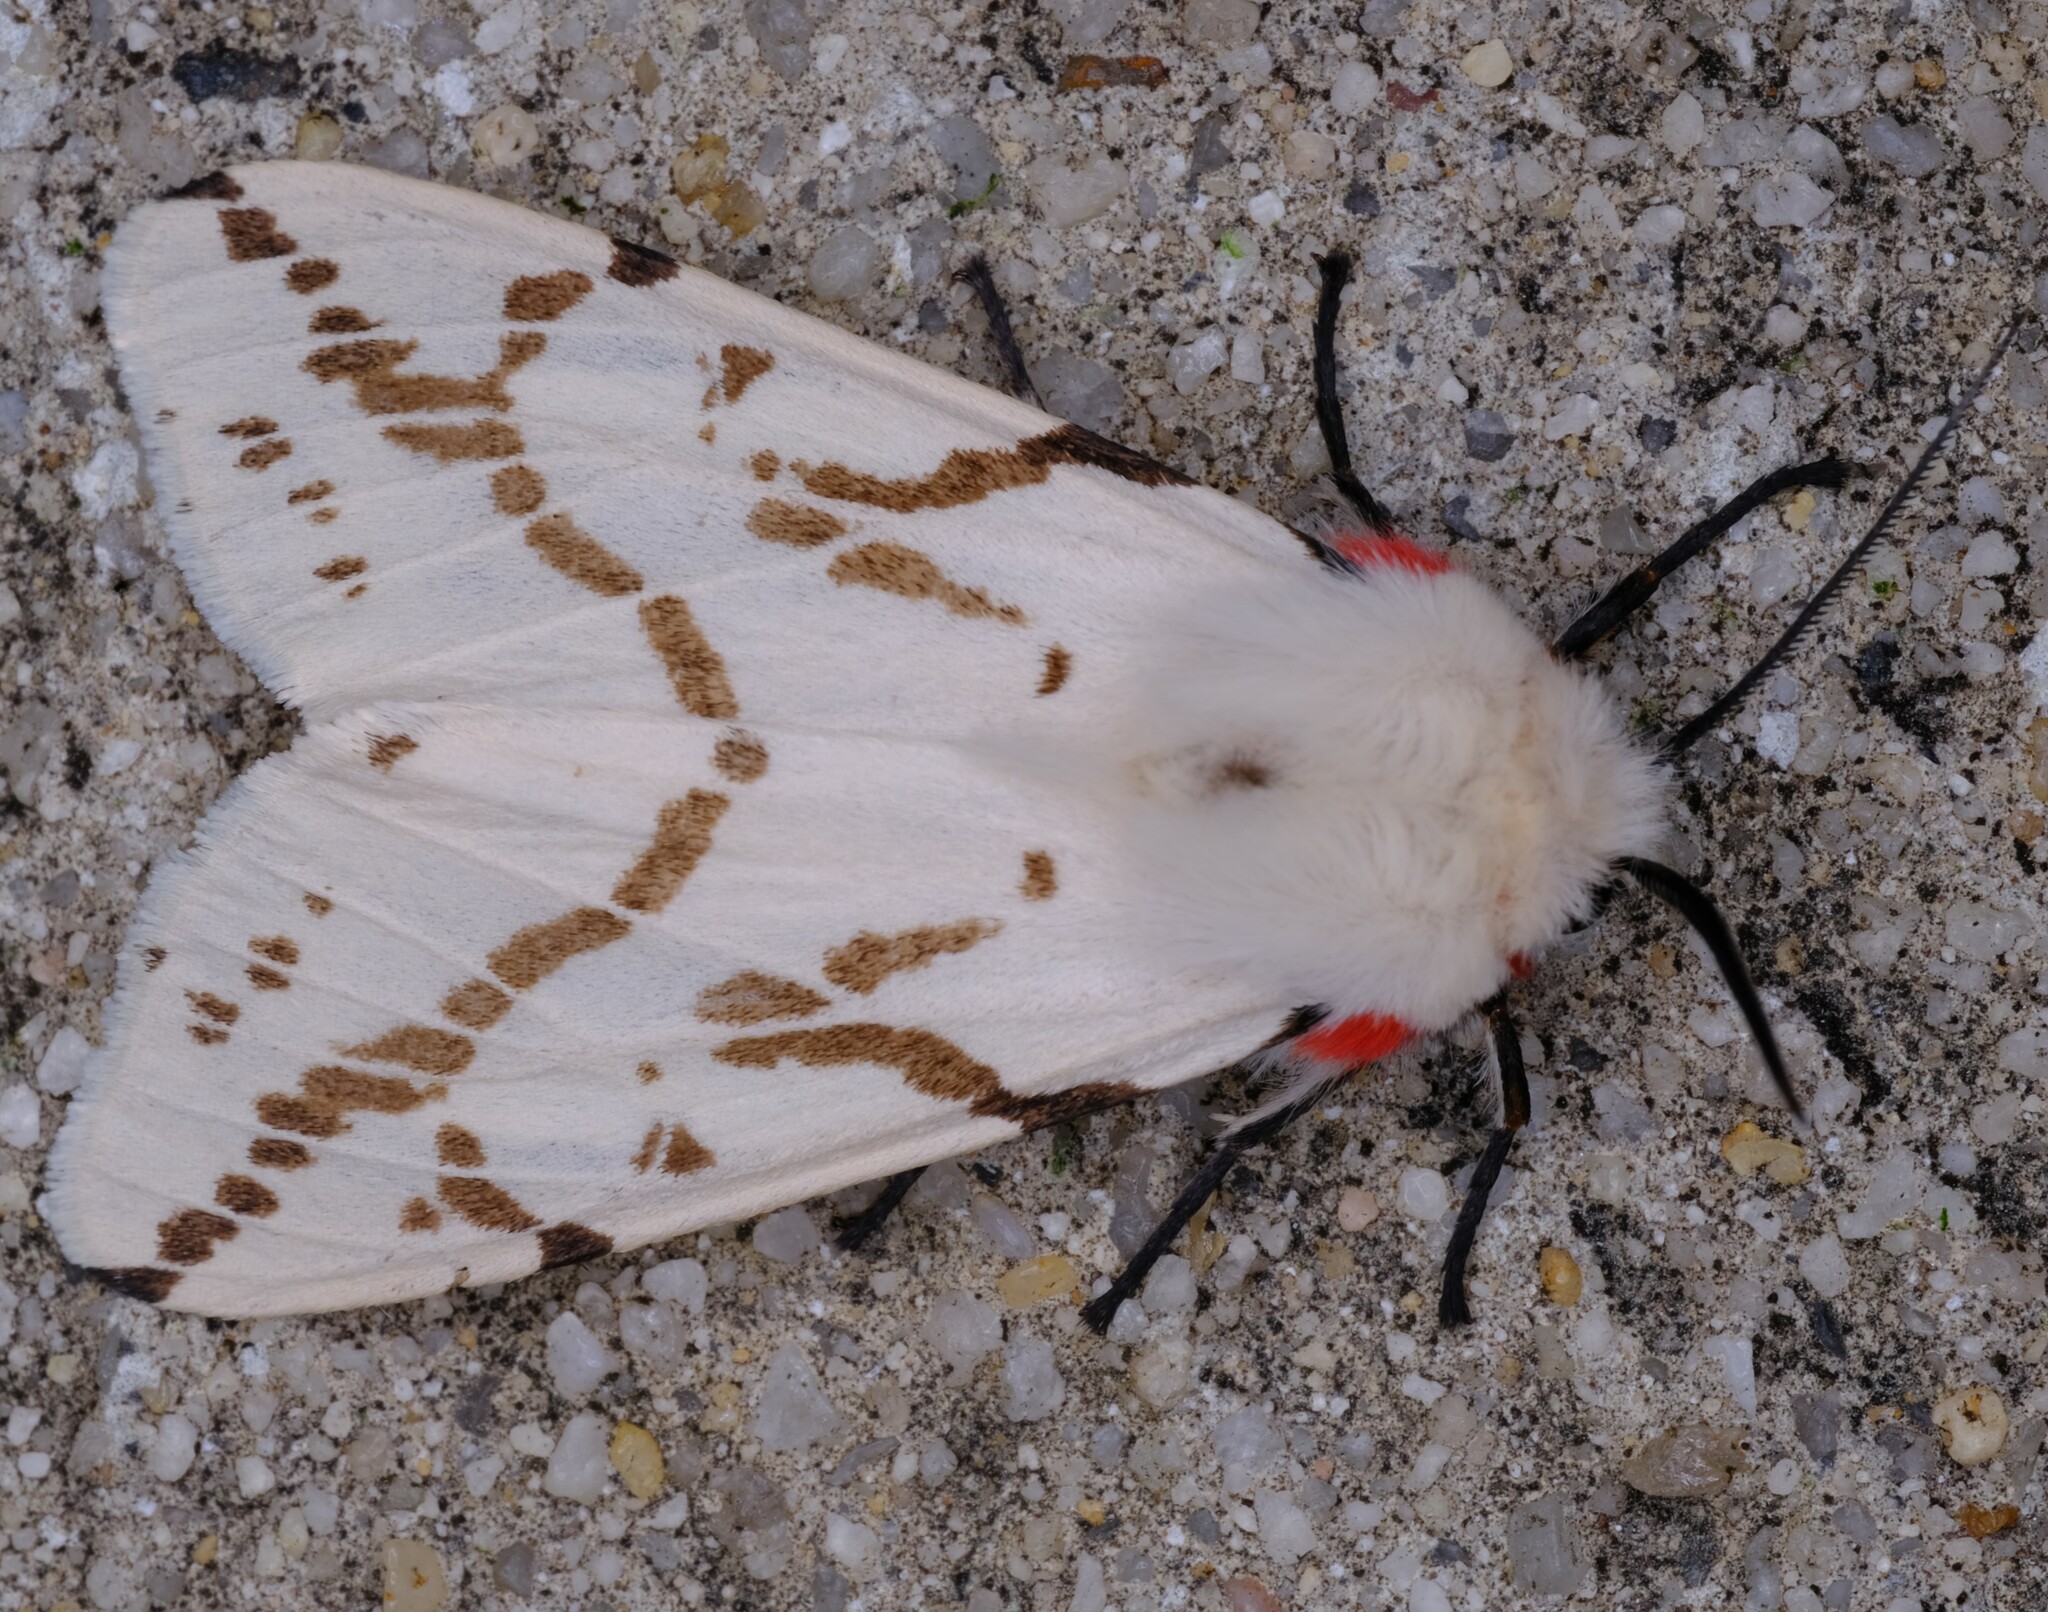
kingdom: Animalia
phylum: Arthropoda
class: Insecta
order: Lepidoptera
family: Erebidae
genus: Ardices
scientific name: Ardices canescens
